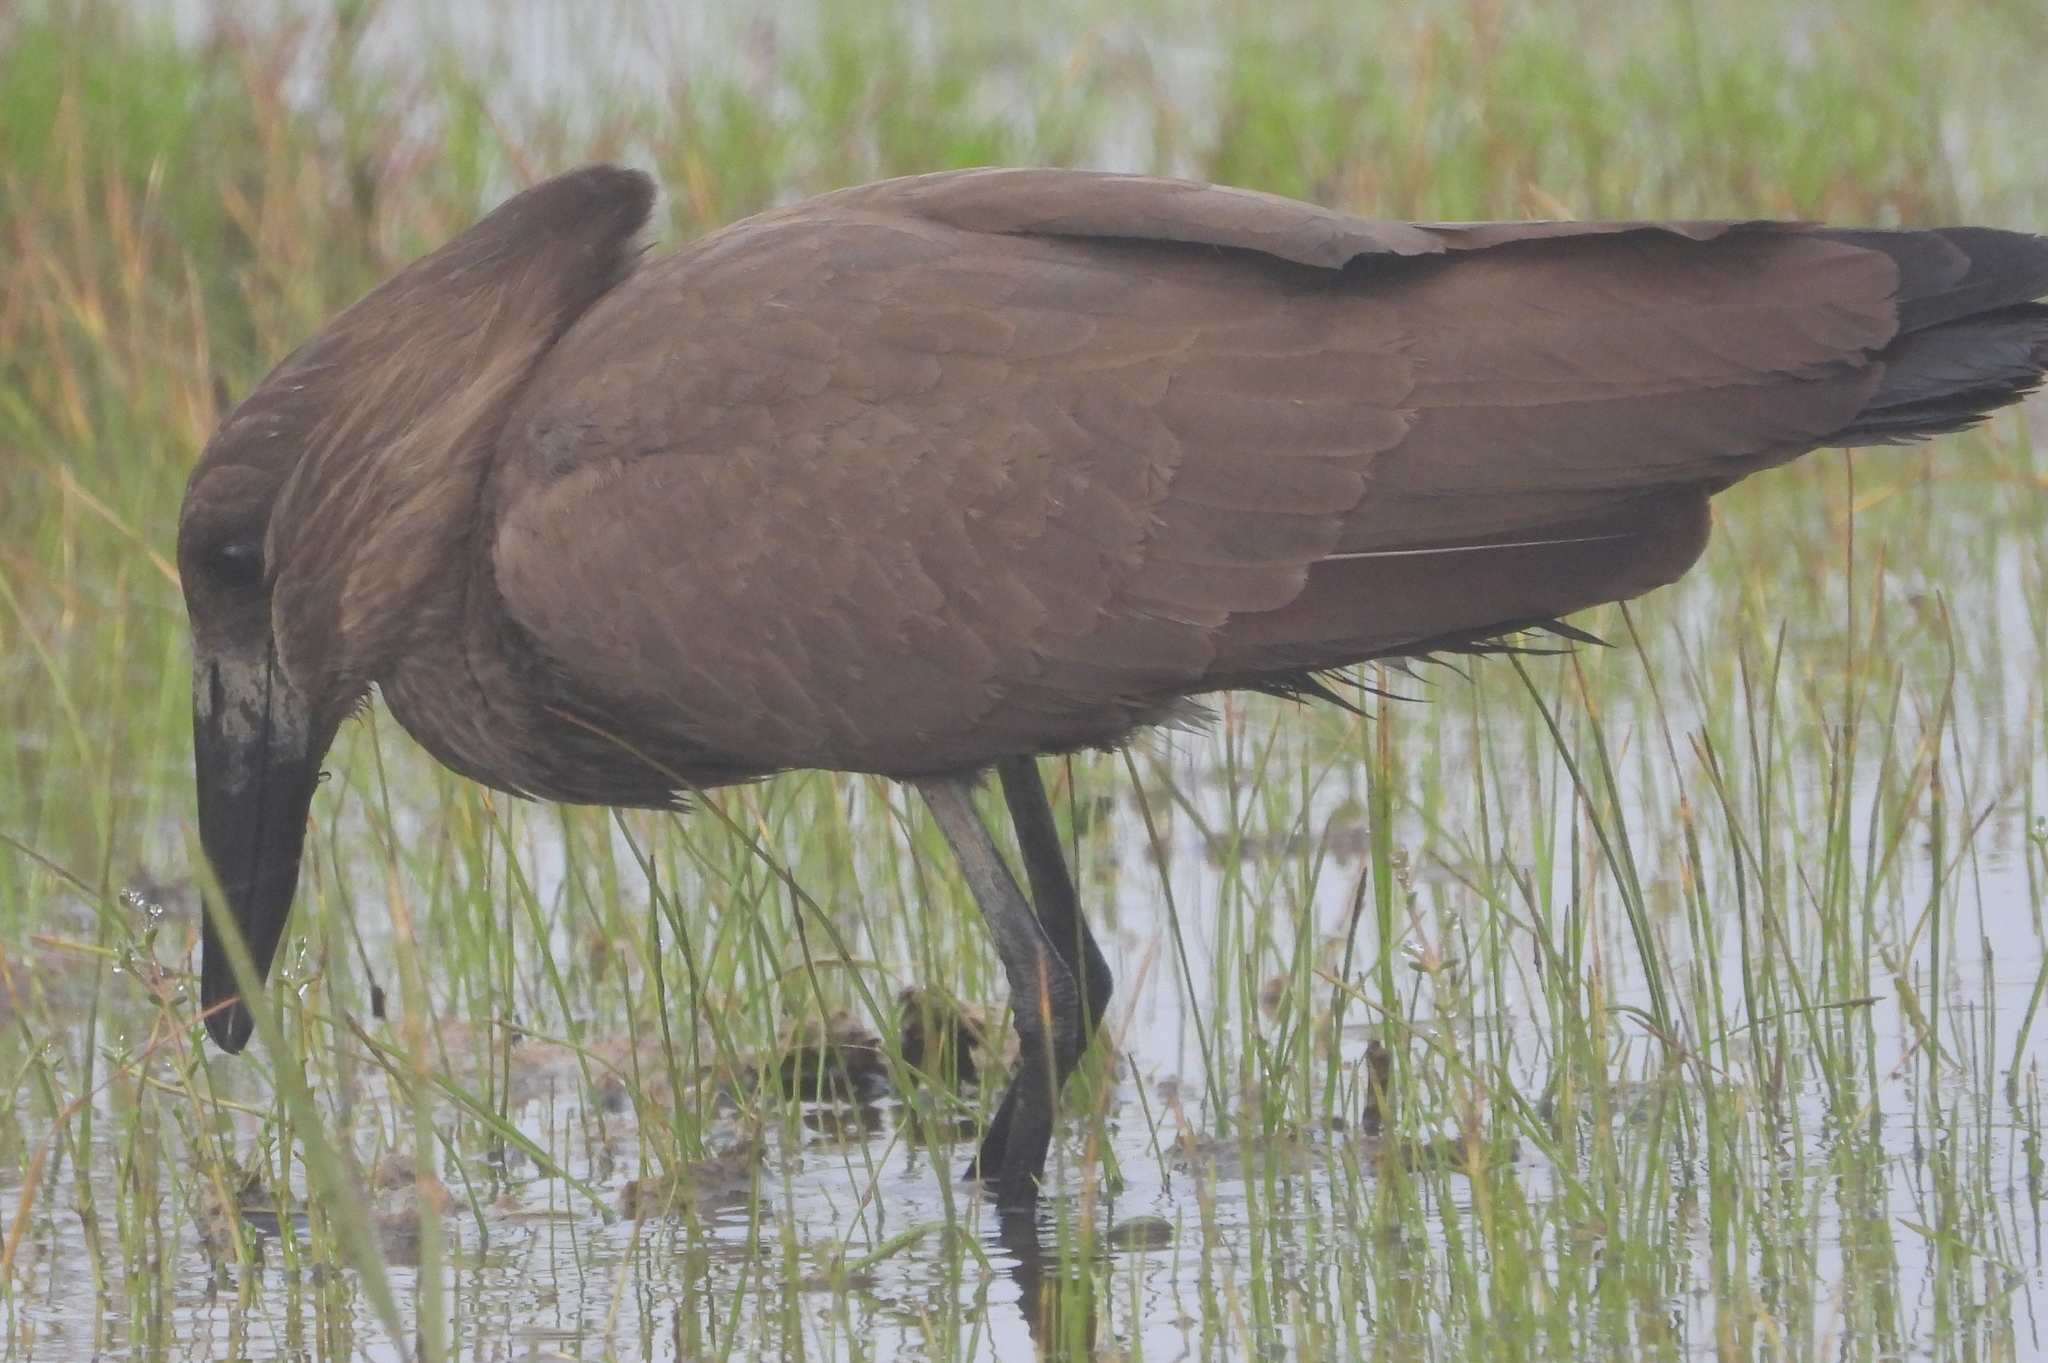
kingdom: Animalia
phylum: Chordata
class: Aves
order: Pelecaniformes
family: Scopidae
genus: Scopus
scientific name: Scopus umbretta
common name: Hamerkop
